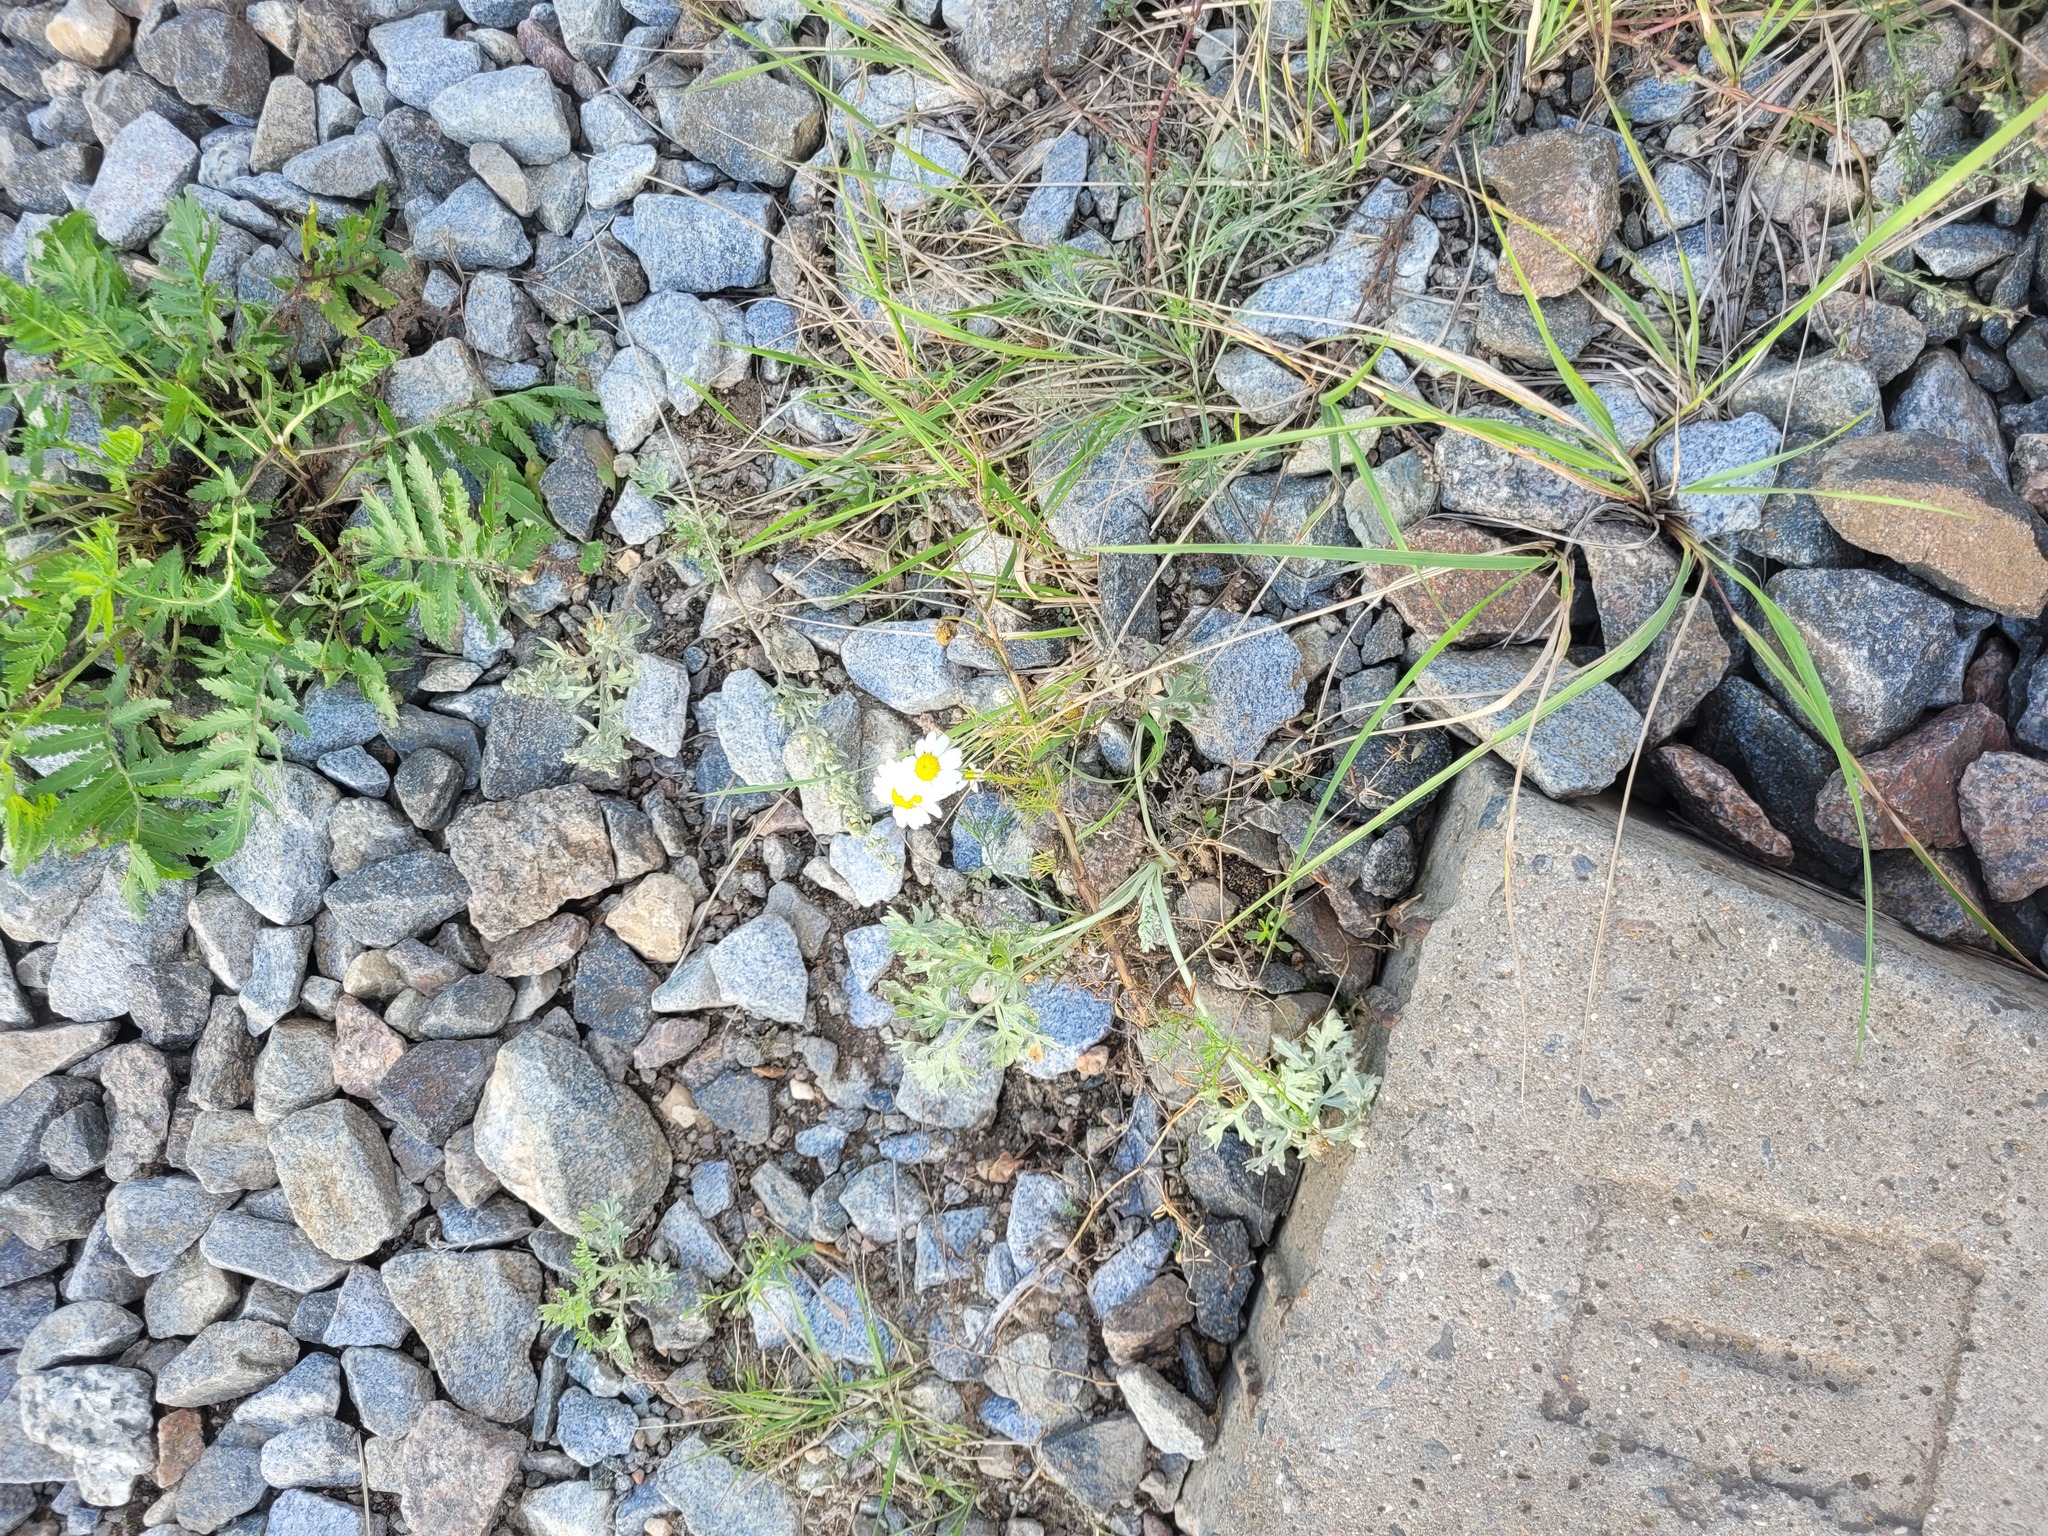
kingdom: Plantae
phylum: Tracheophyta
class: Magnoliopsida
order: Asterales
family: Asteraceae
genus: Tripleurospermum
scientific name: Tripleurospermum inodorum
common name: Scentless mayweed
